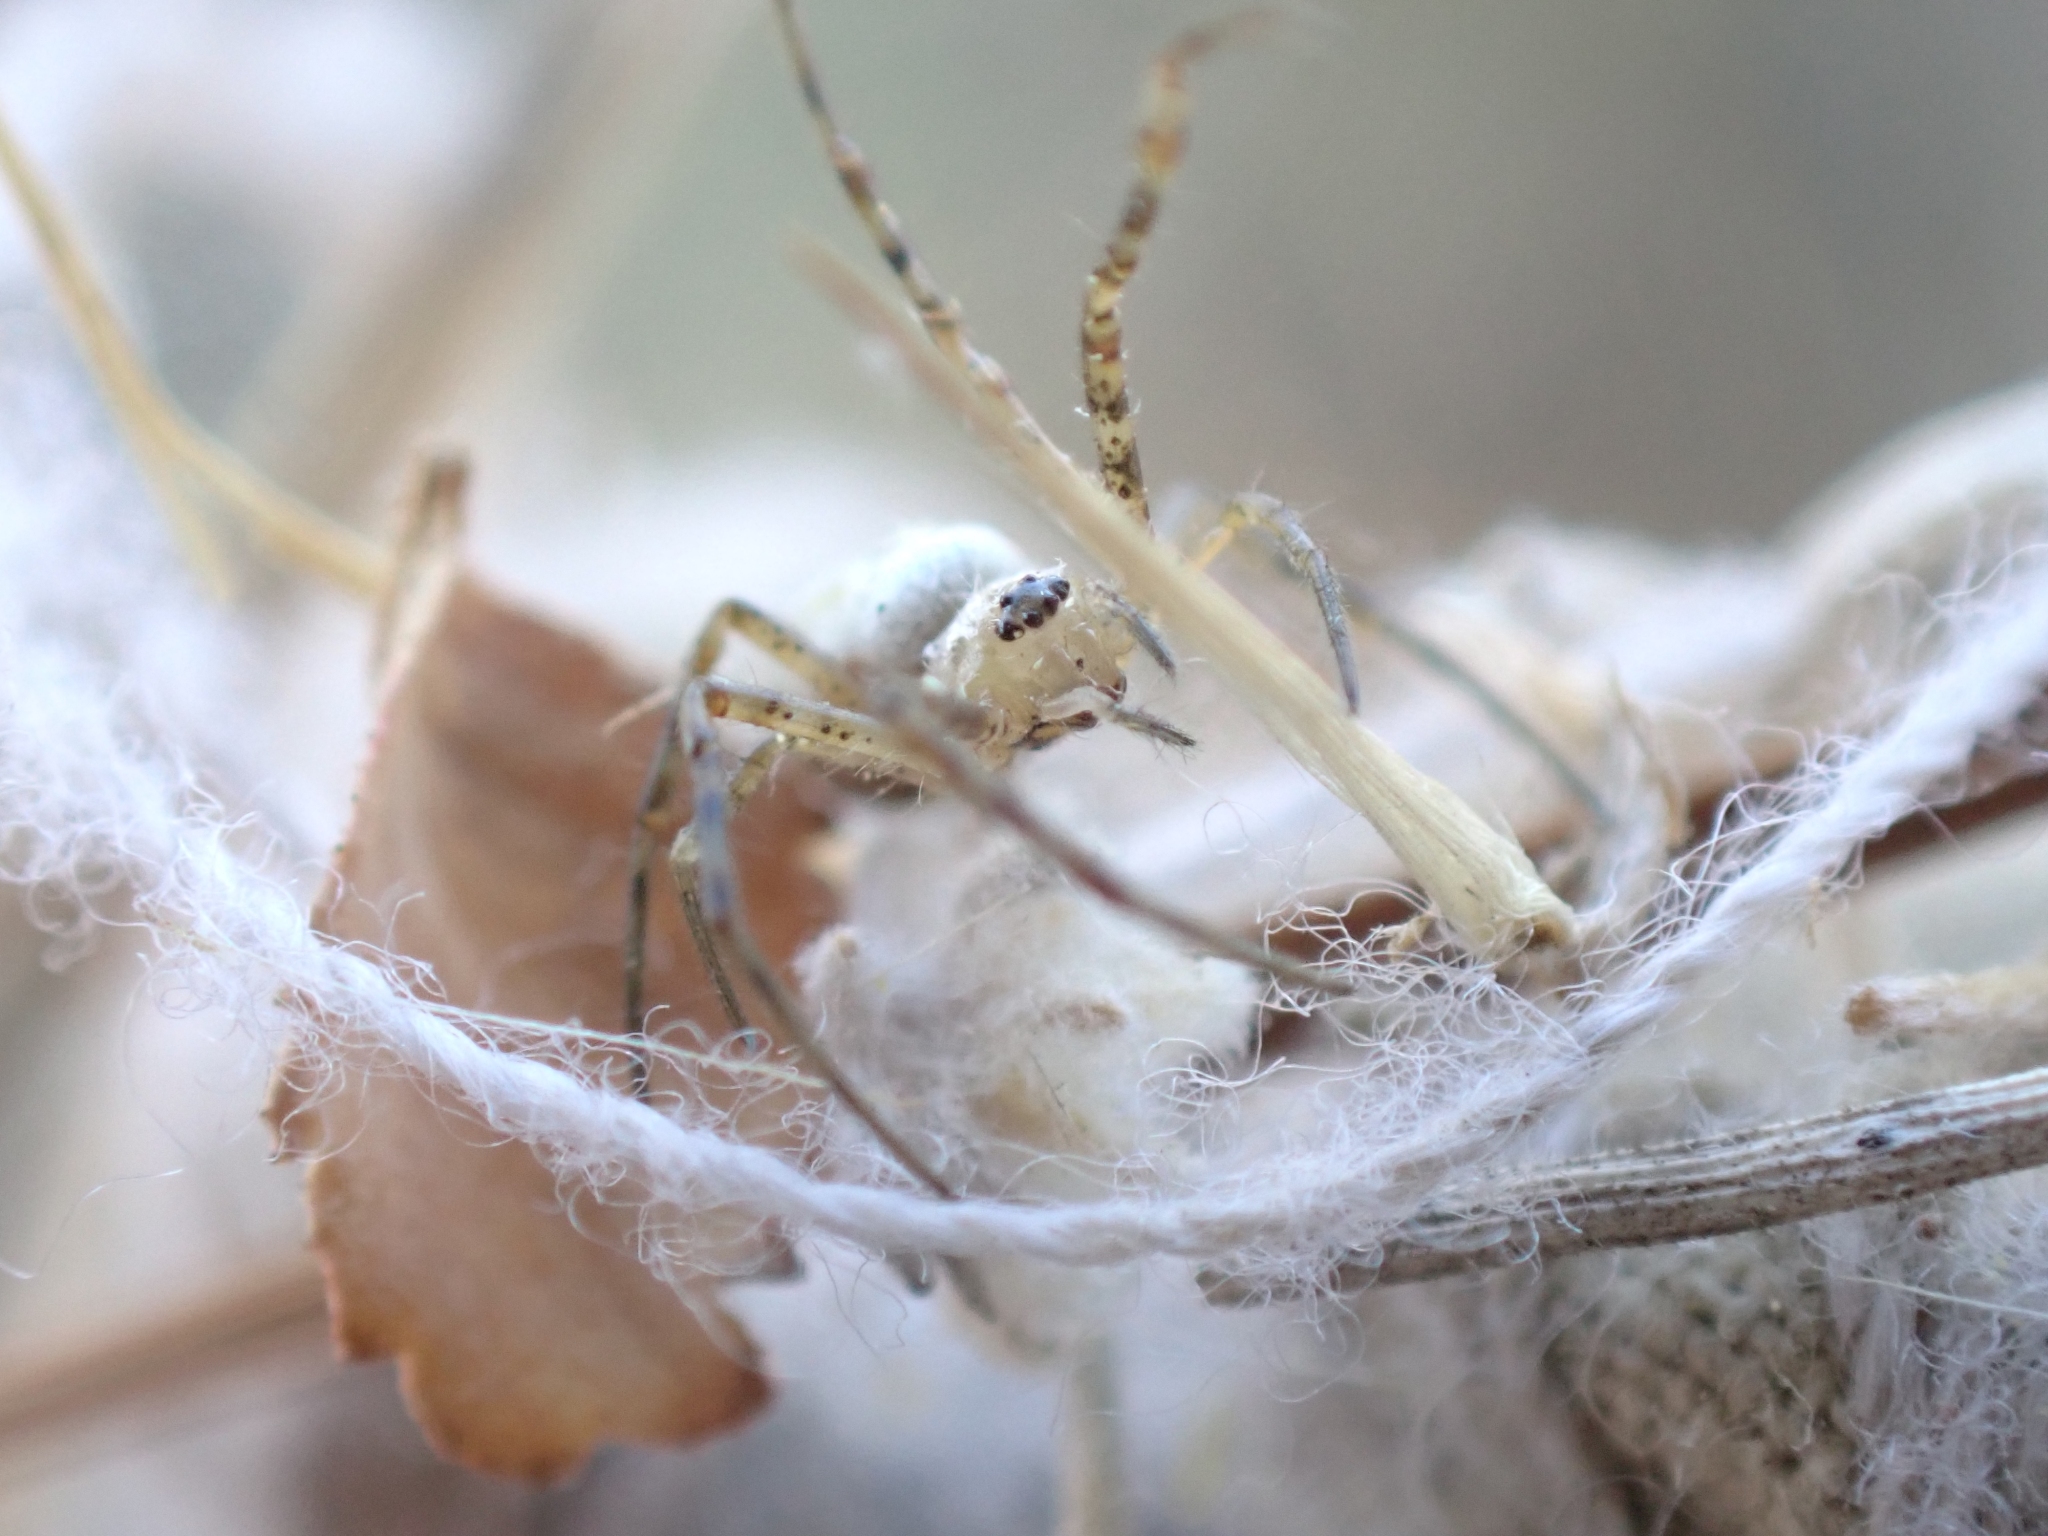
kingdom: Animalia
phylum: Arthropoda
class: Arachnida
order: Araneae
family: Araneidae
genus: Argiope
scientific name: Argiope trifasciata
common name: Banded garden spider
